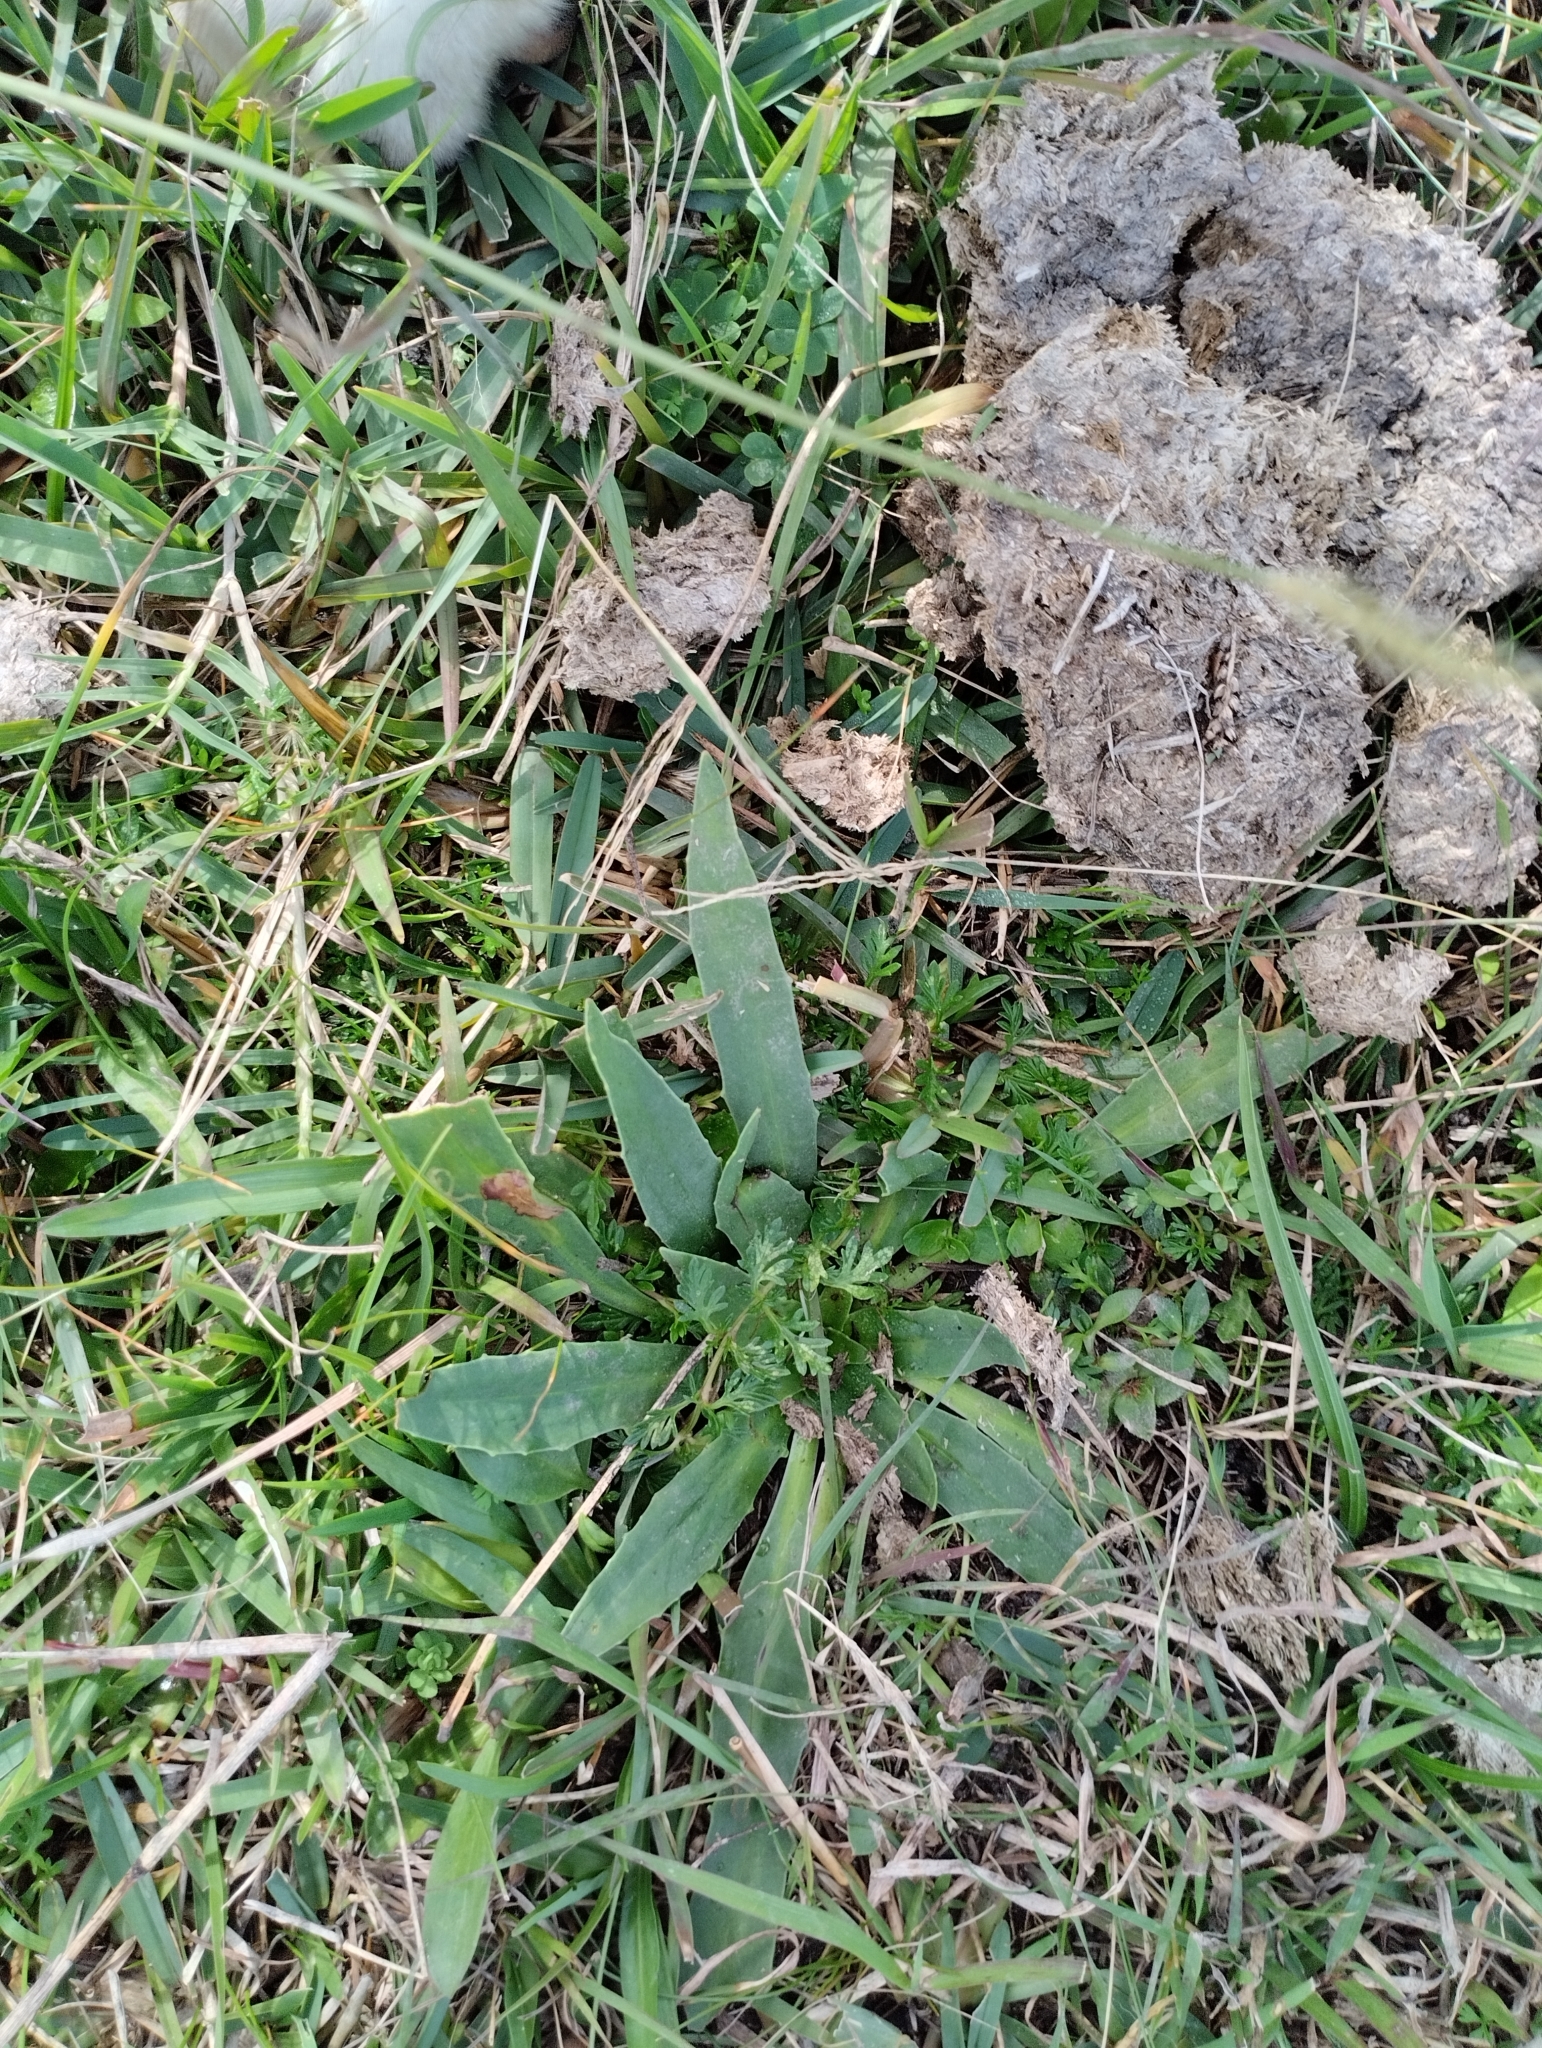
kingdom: Plantae
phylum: Tracheophyta
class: Magnoliopsida
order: Apiales
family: Apiaceae
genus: Eryngium
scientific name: Eryngium sanguisorba
